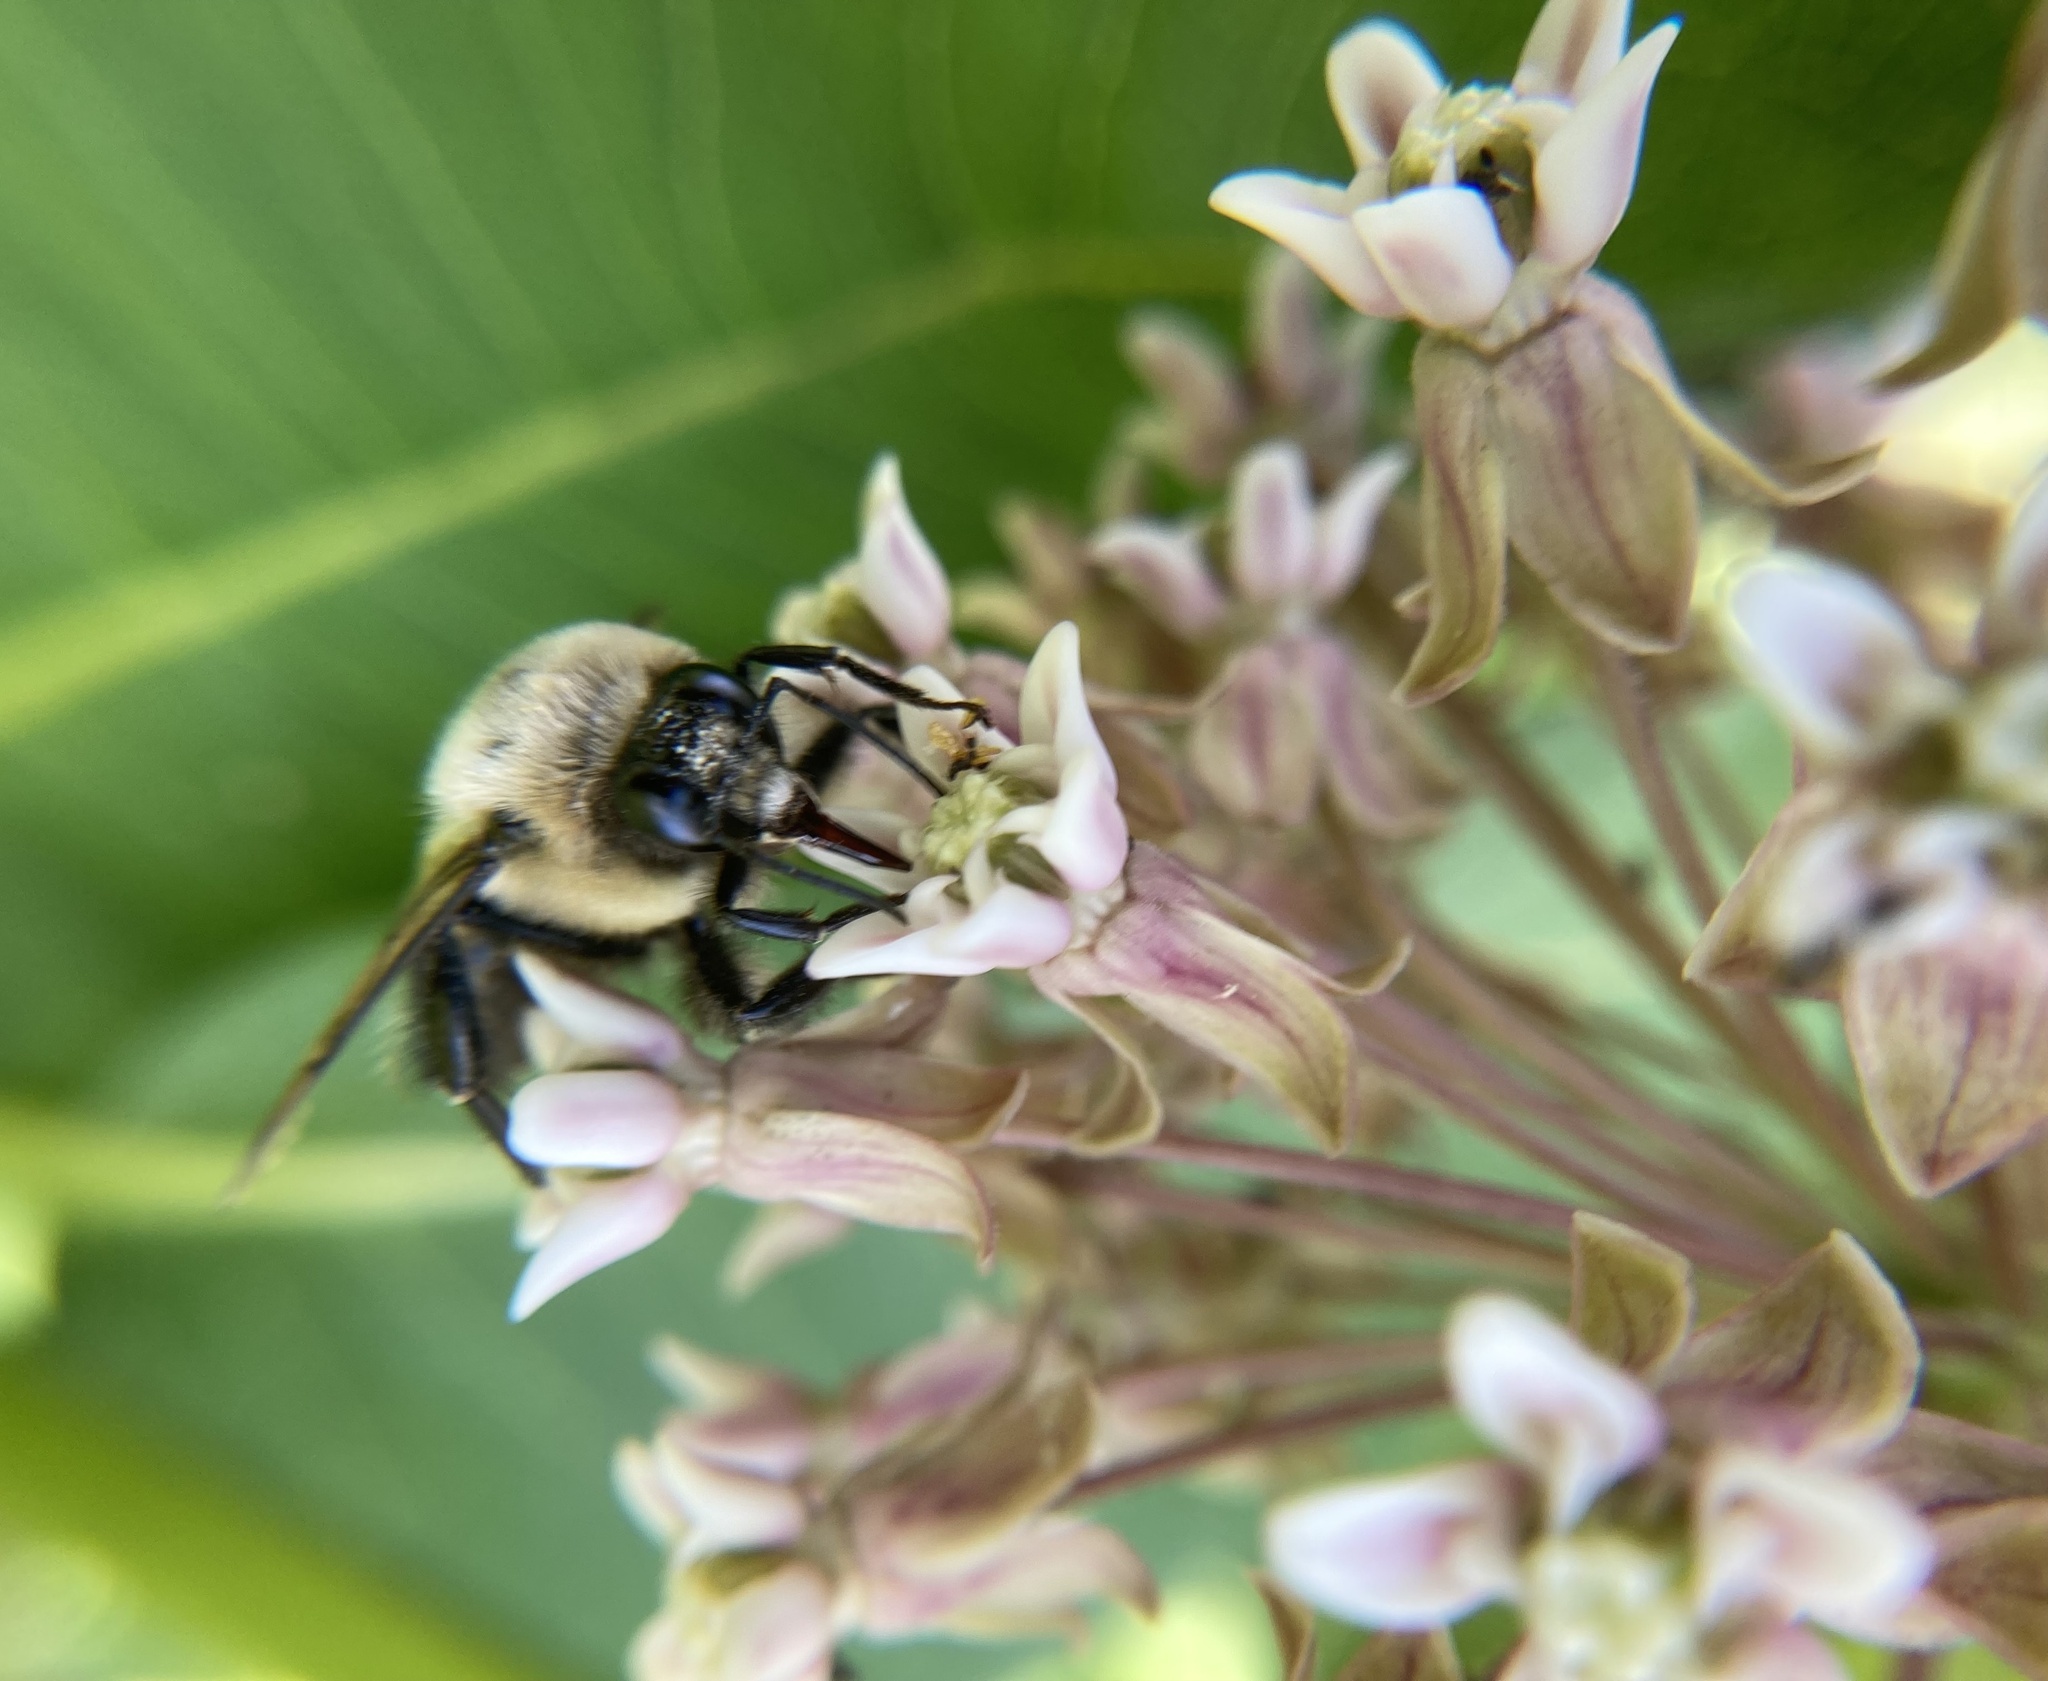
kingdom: Animalia
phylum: Arthropoda
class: Insecta
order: Hymenoptera
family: Apidae
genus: Bombus
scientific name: Bombus griseocollis
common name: Brown-belted bumble bee
